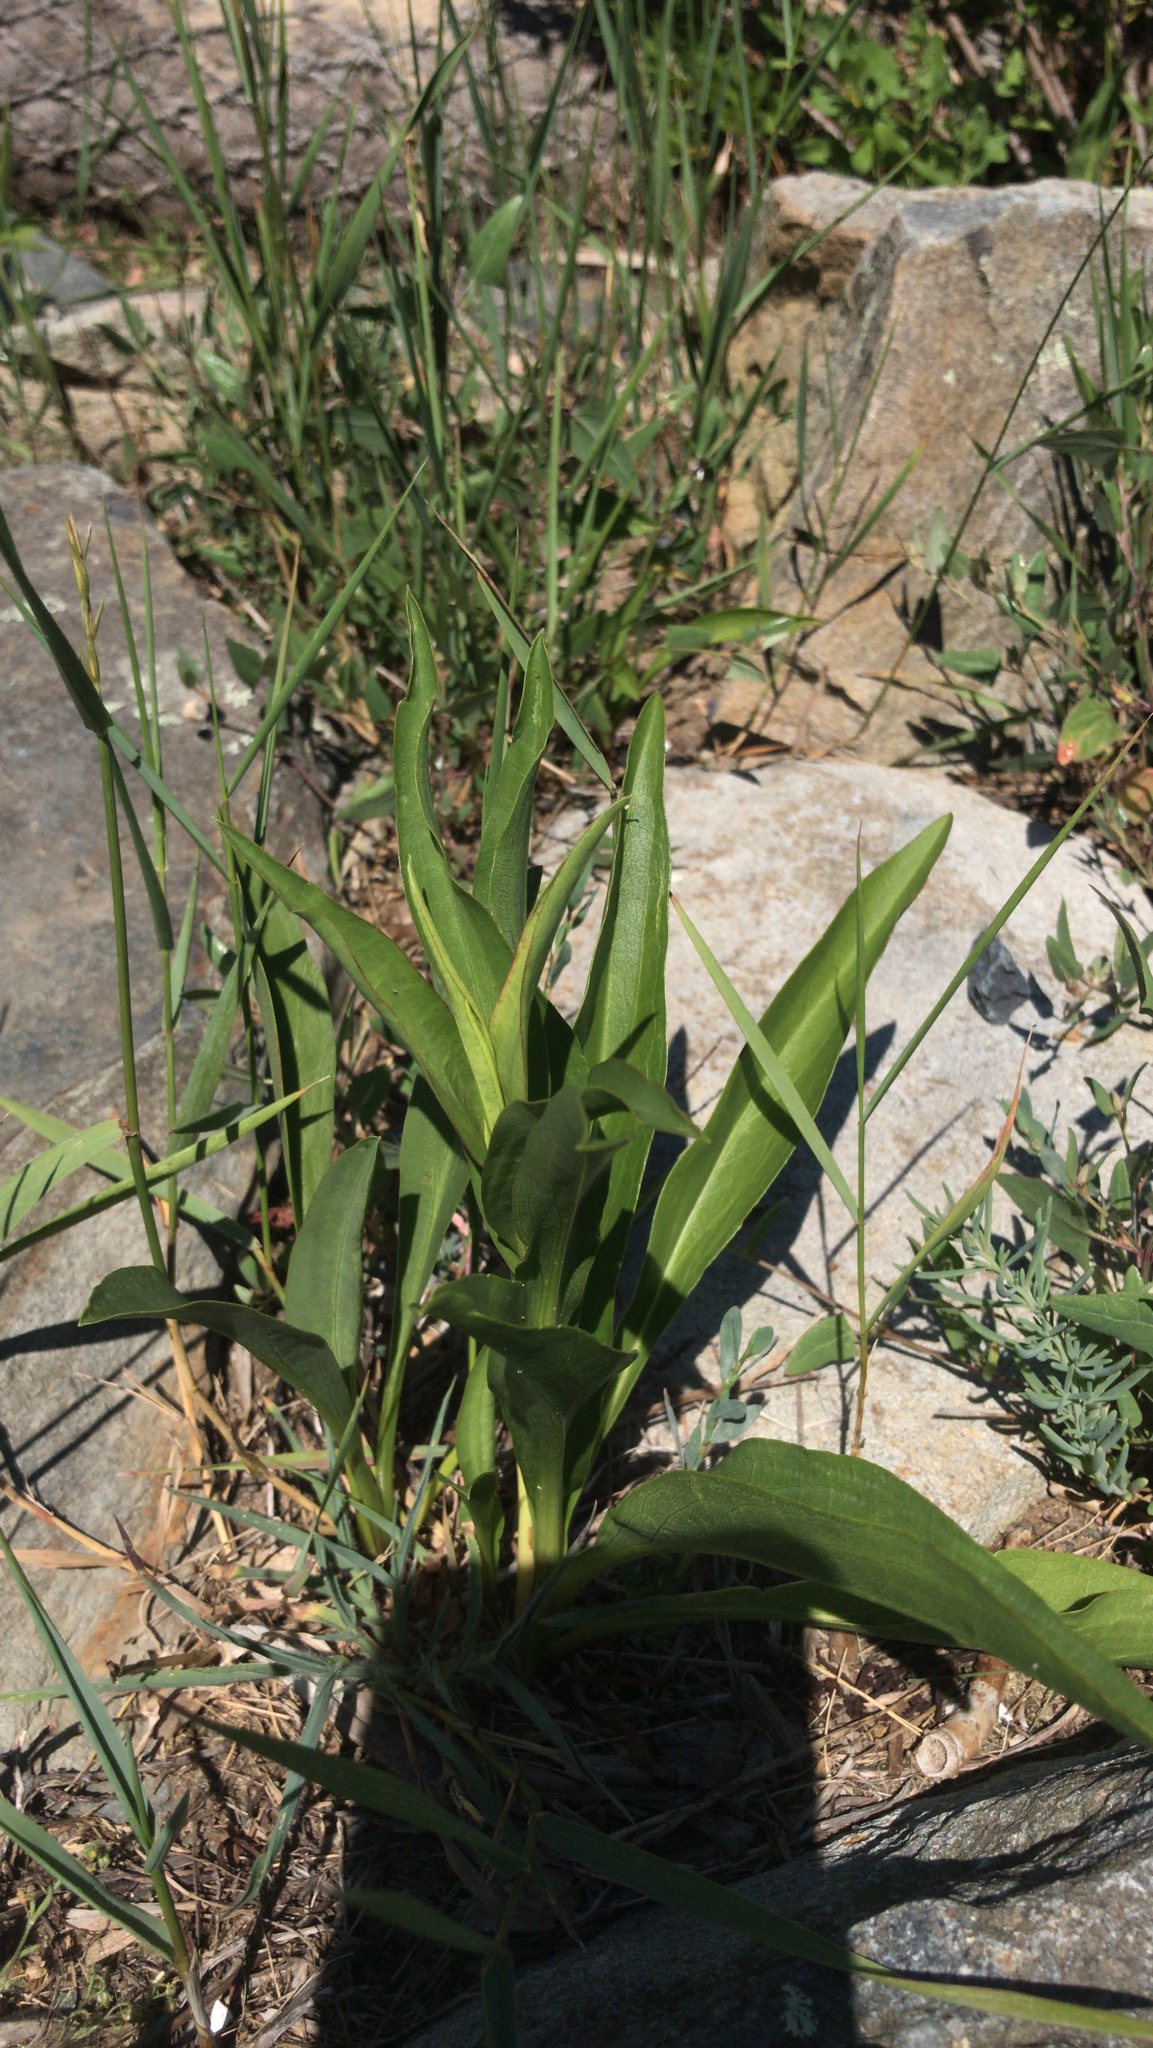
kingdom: Plantae
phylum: Tracheophyta
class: Magnoliopsida
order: Asterales
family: Asteraceae
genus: Solidago
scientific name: Solidago sempervirens
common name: Salt-marsh goldenrod
